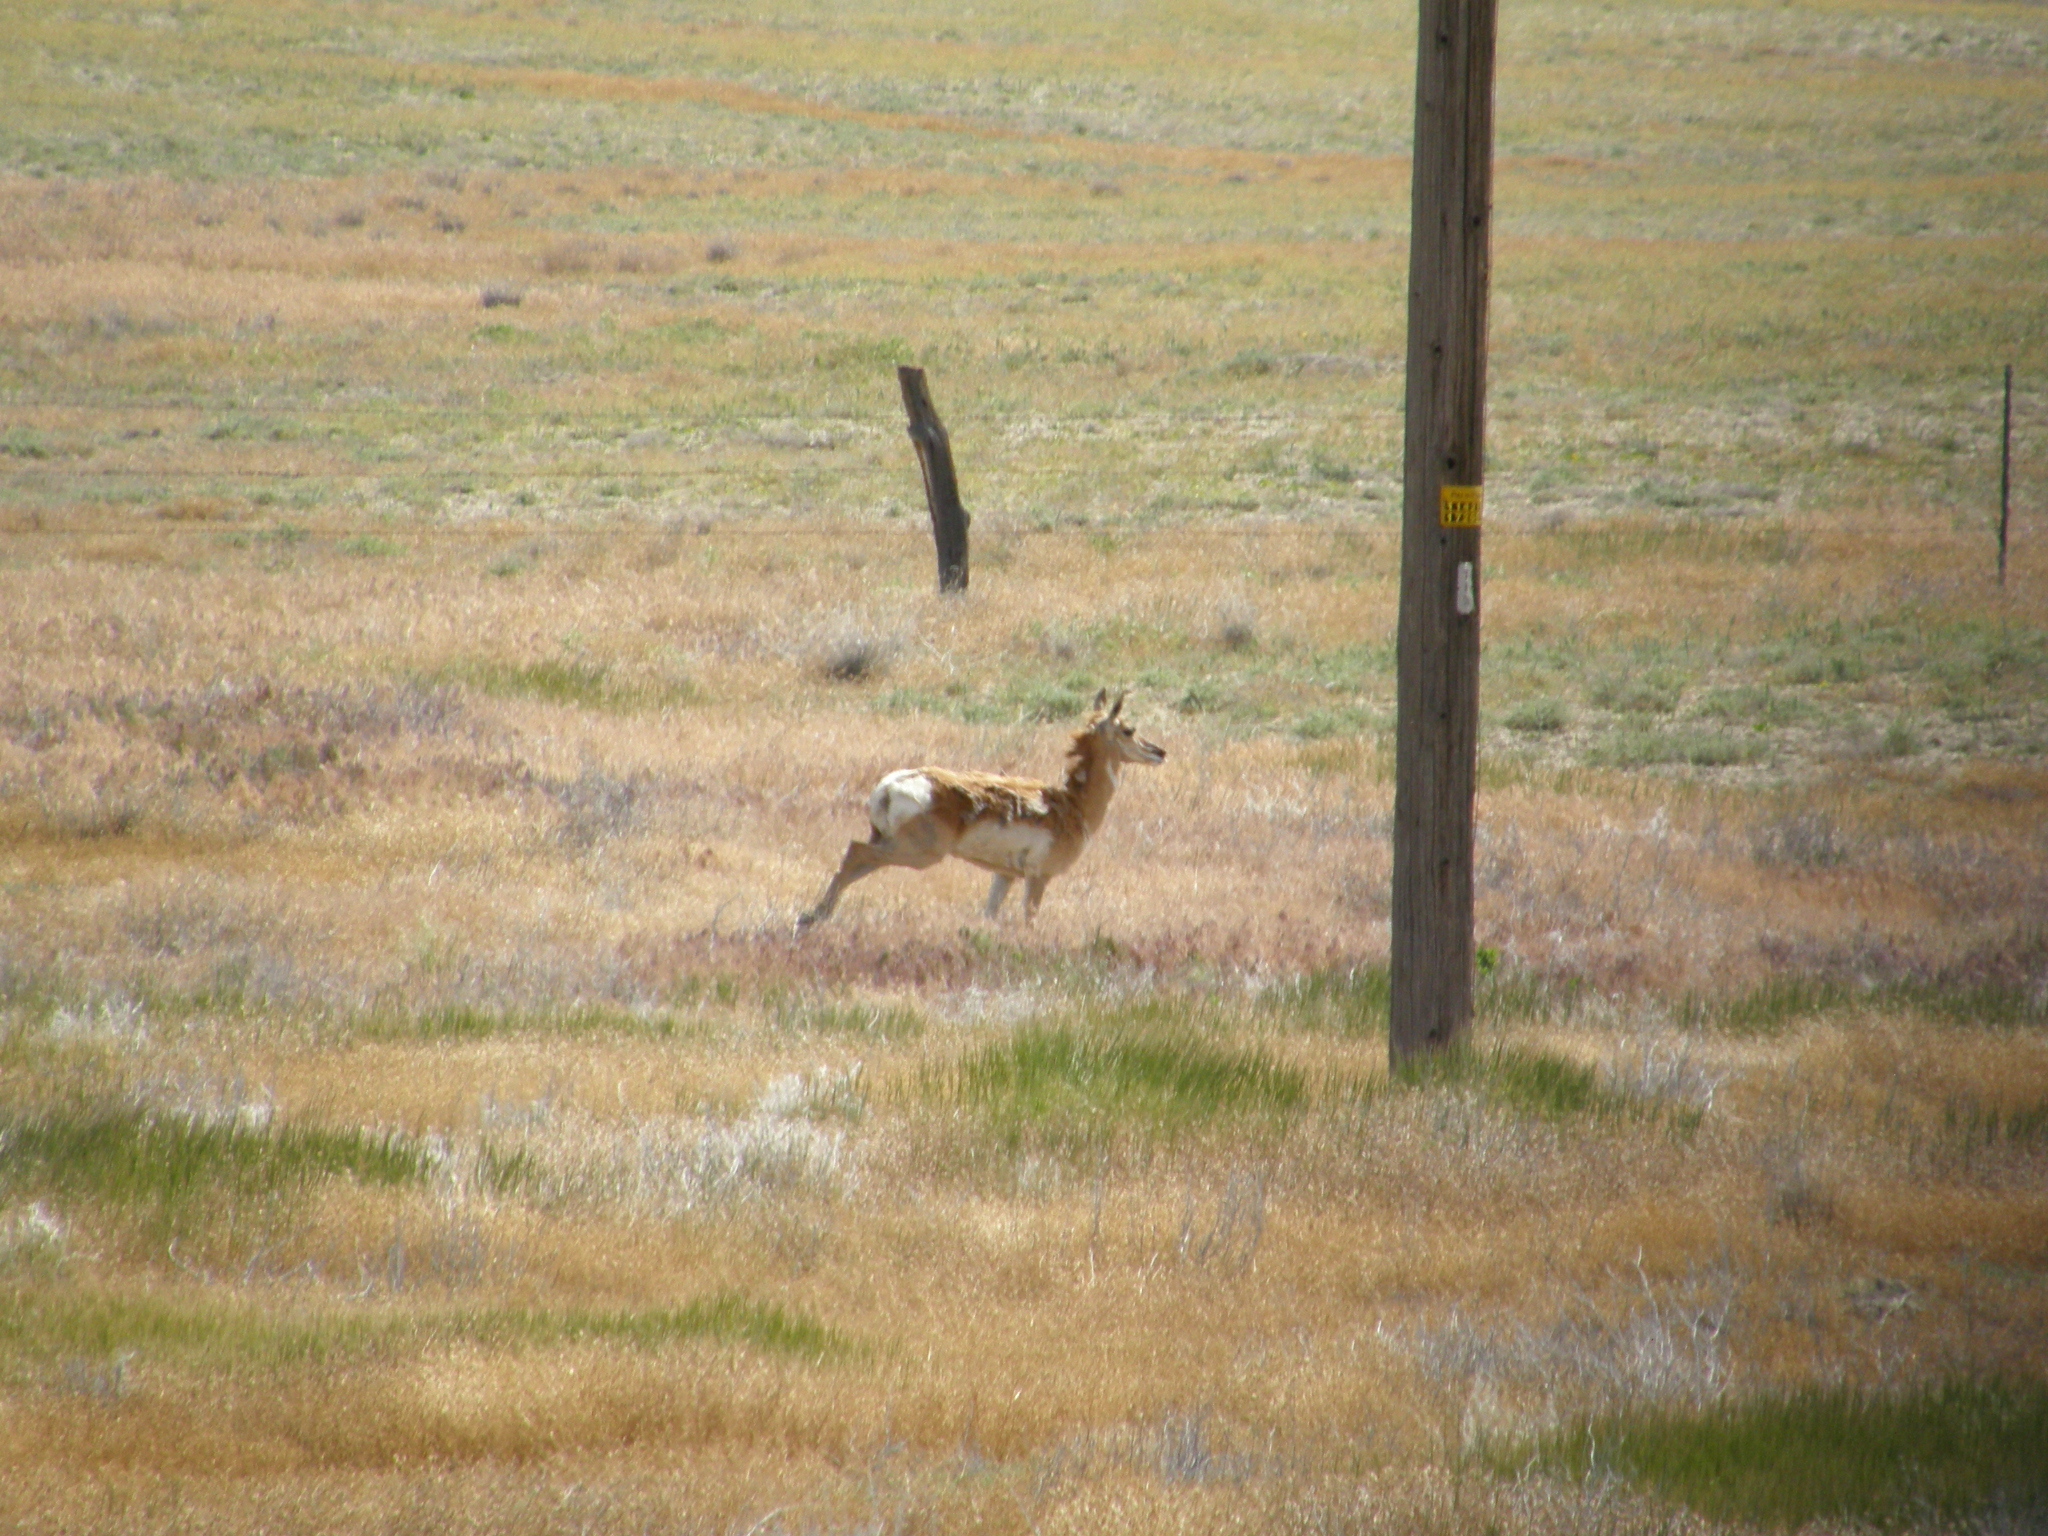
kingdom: Animalia
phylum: Chordata
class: Mammalia
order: Artiodactyla
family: Antilocapridae
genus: Antilocapra
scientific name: Antilocapra americana
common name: Pronghorn
